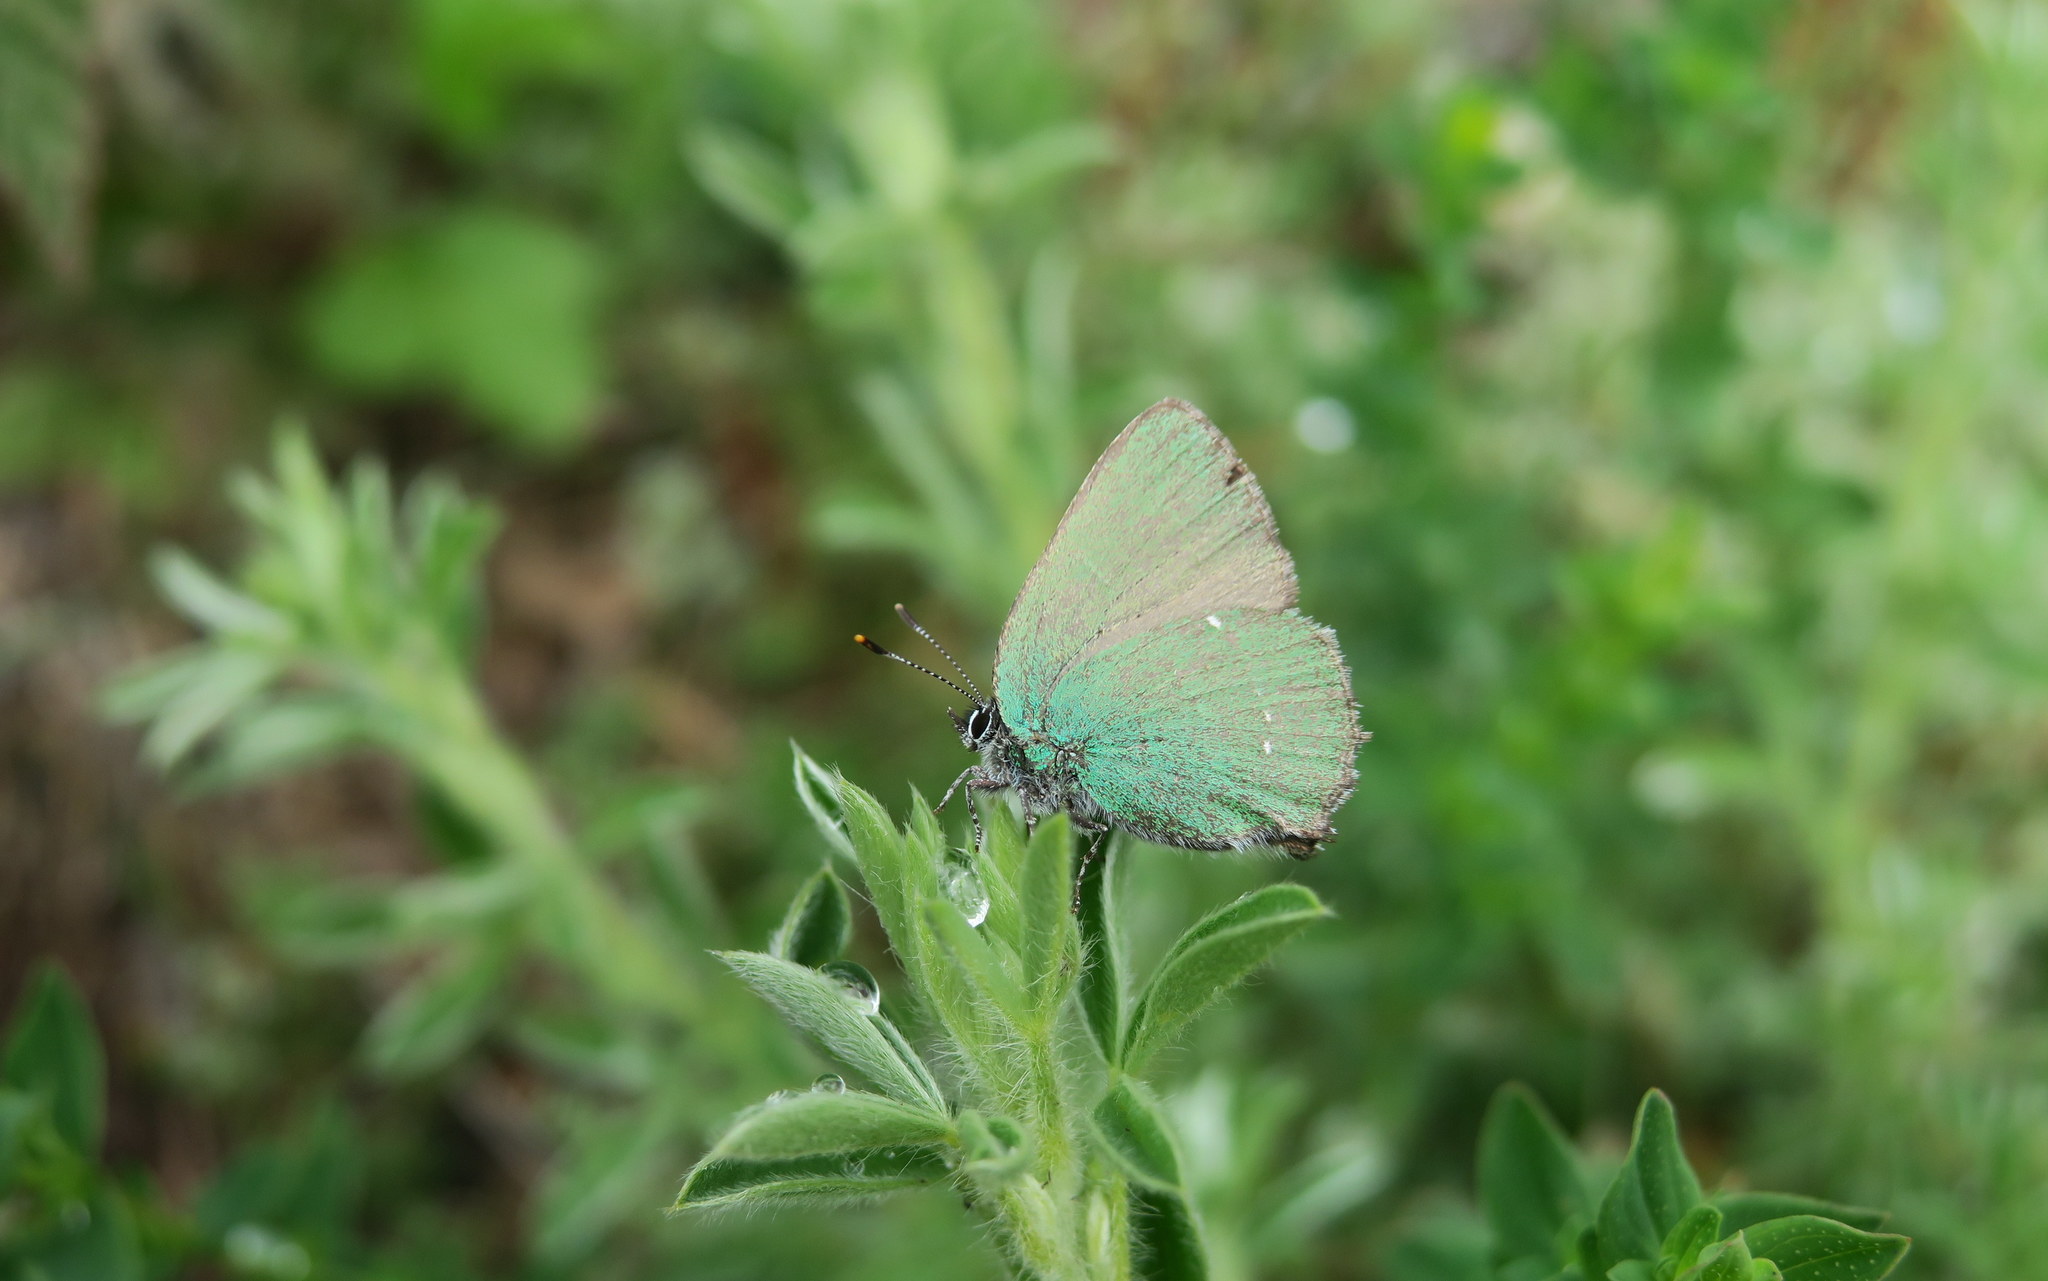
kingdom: Animalia
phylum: Arthropoda
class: Insecta
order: Lepidoptera
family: Lycaenidae
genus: Callophrys
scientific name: Callophrys rubi
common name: Green hairstreak
